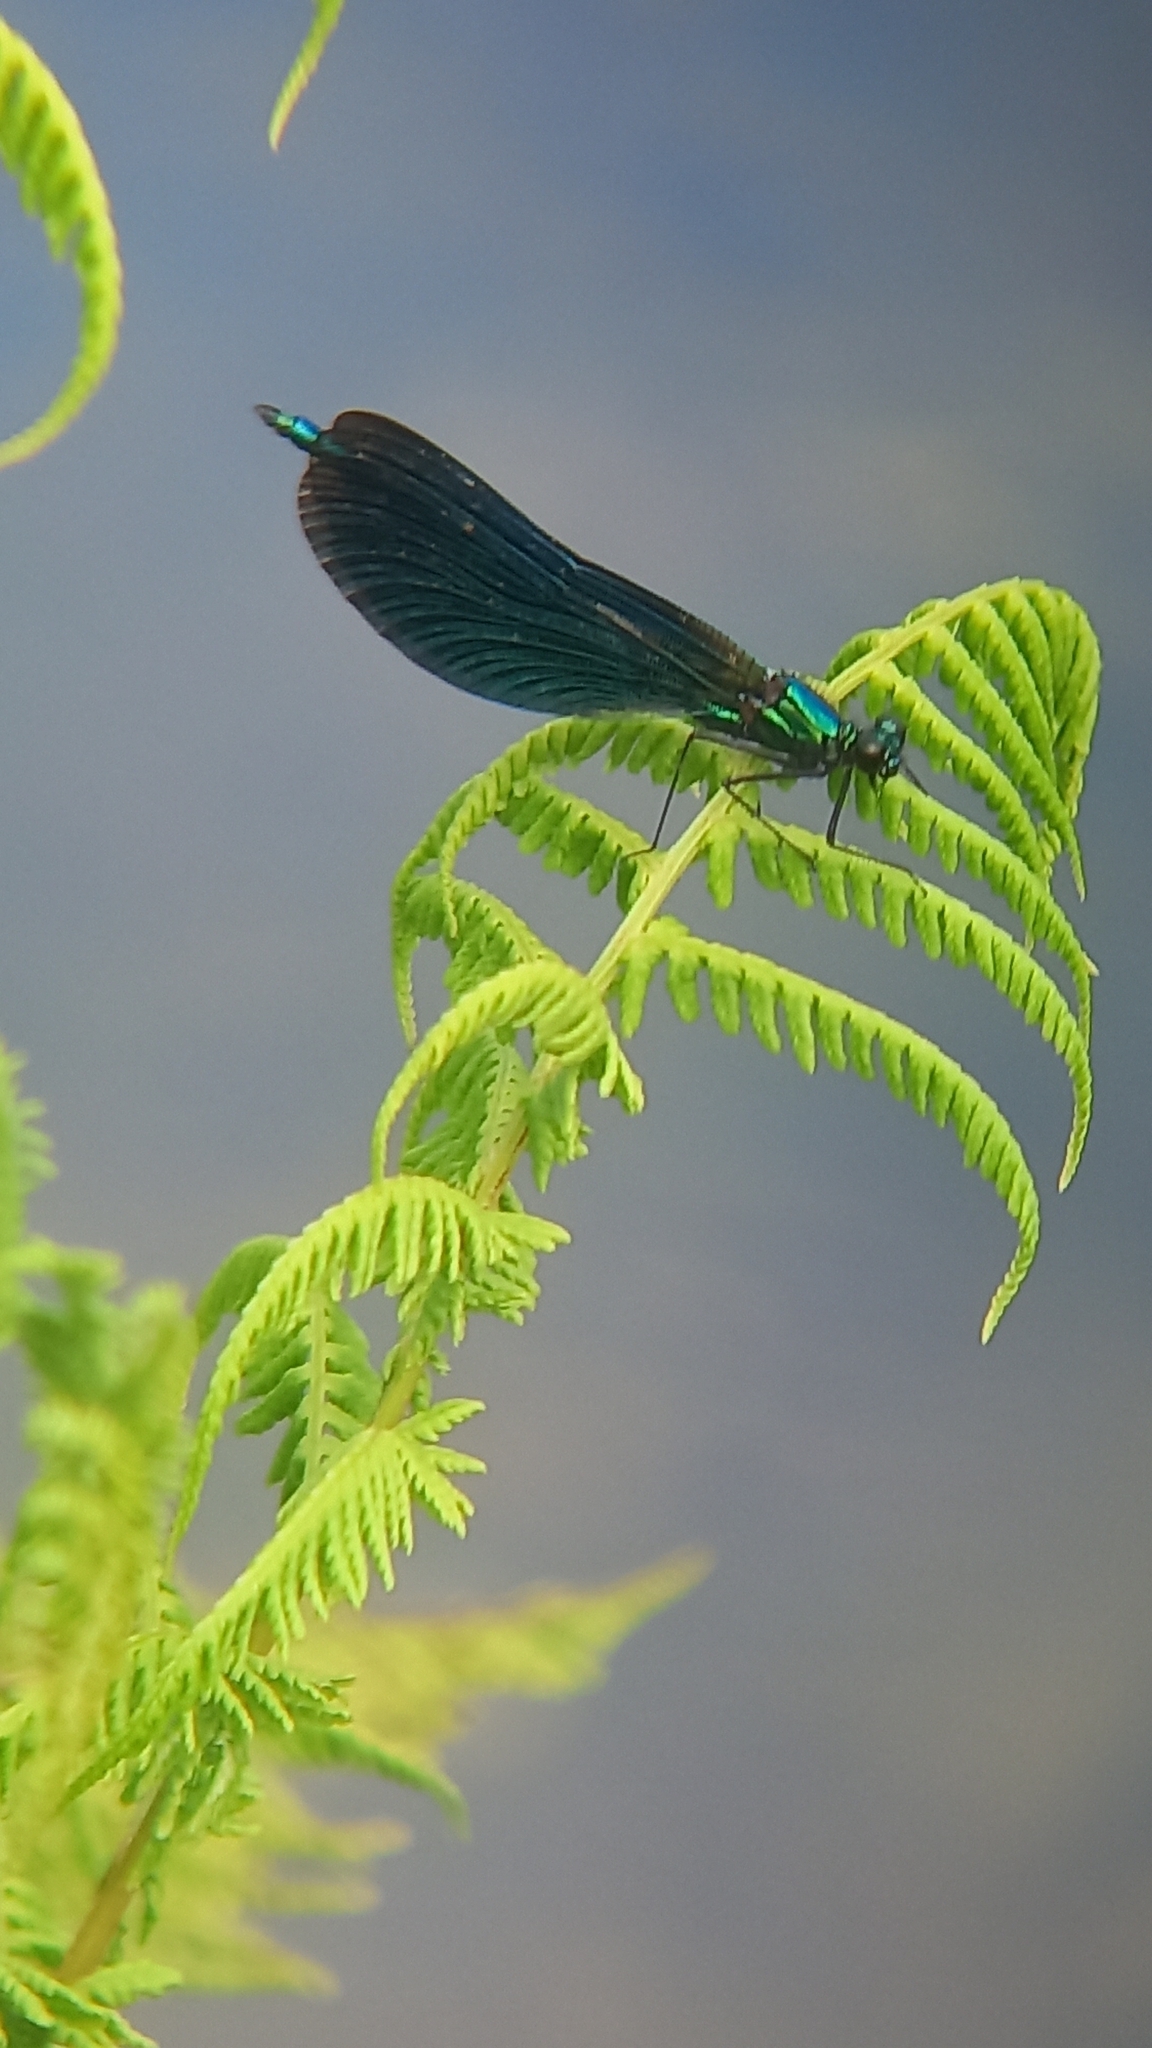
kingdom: Animalia
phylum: Arthropoda
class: Insecta
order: Odonata
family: Calopterygidae
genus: Calopteryx
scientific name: Calopteryx virgo
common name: Beautiful demoiselle
